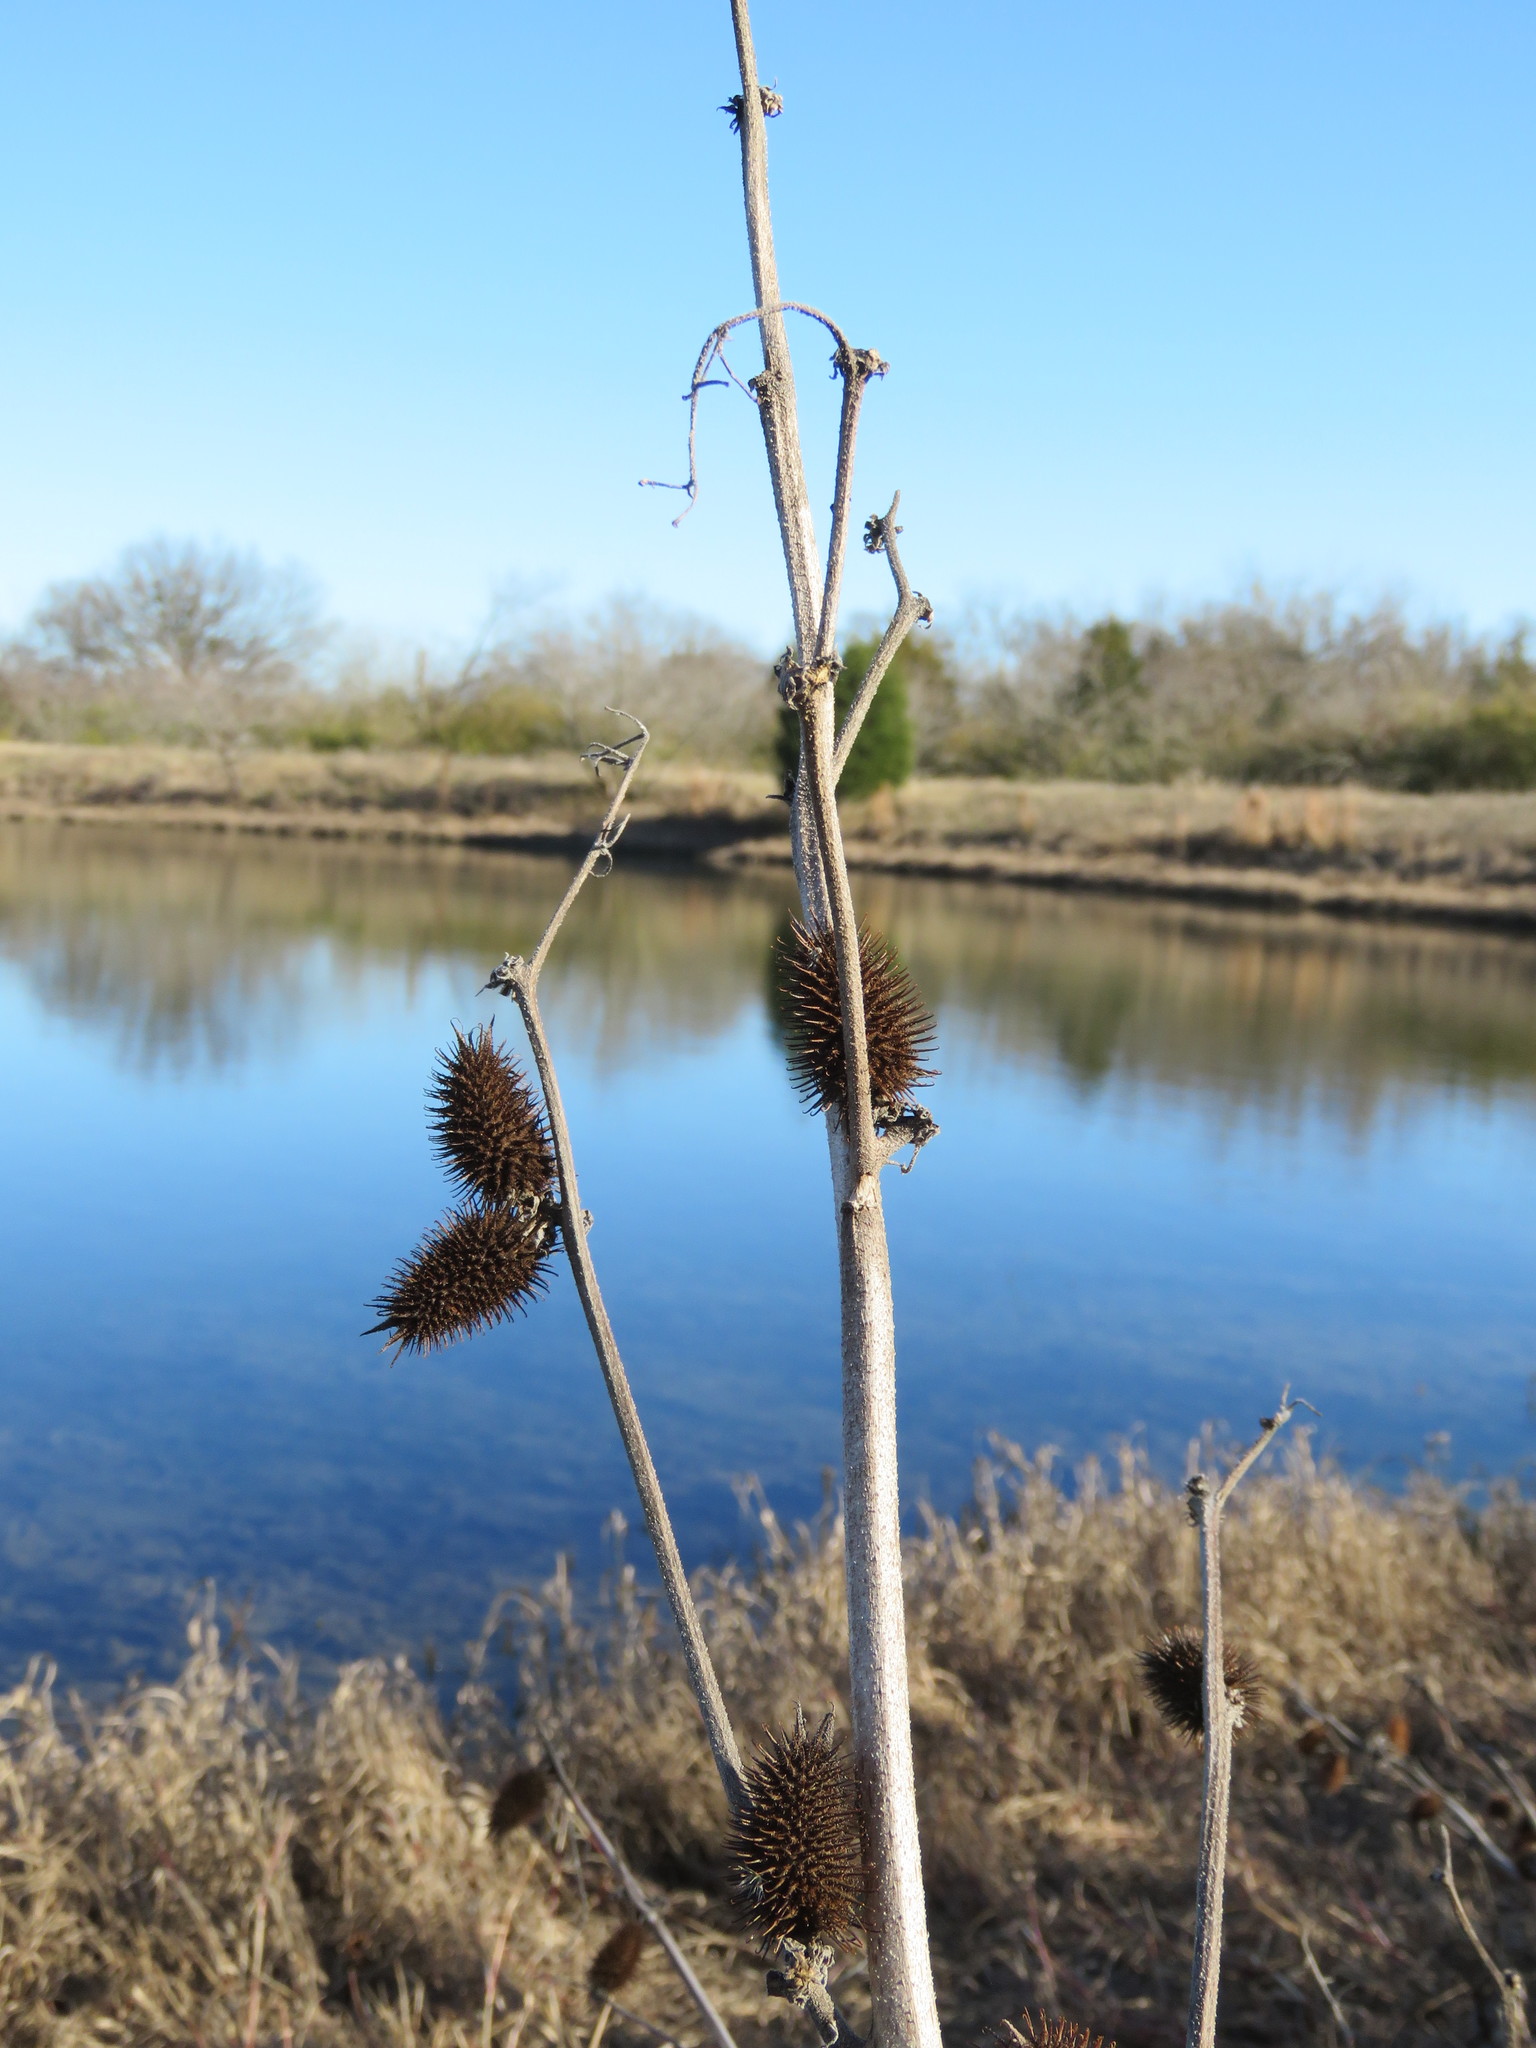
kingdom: Plantae
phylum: Tracheophyta
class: Magnoliopsida
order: Asterales
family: Asteraceae
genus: Xanthium
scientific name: Xanthium strumarium
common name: Rough cocklebur
